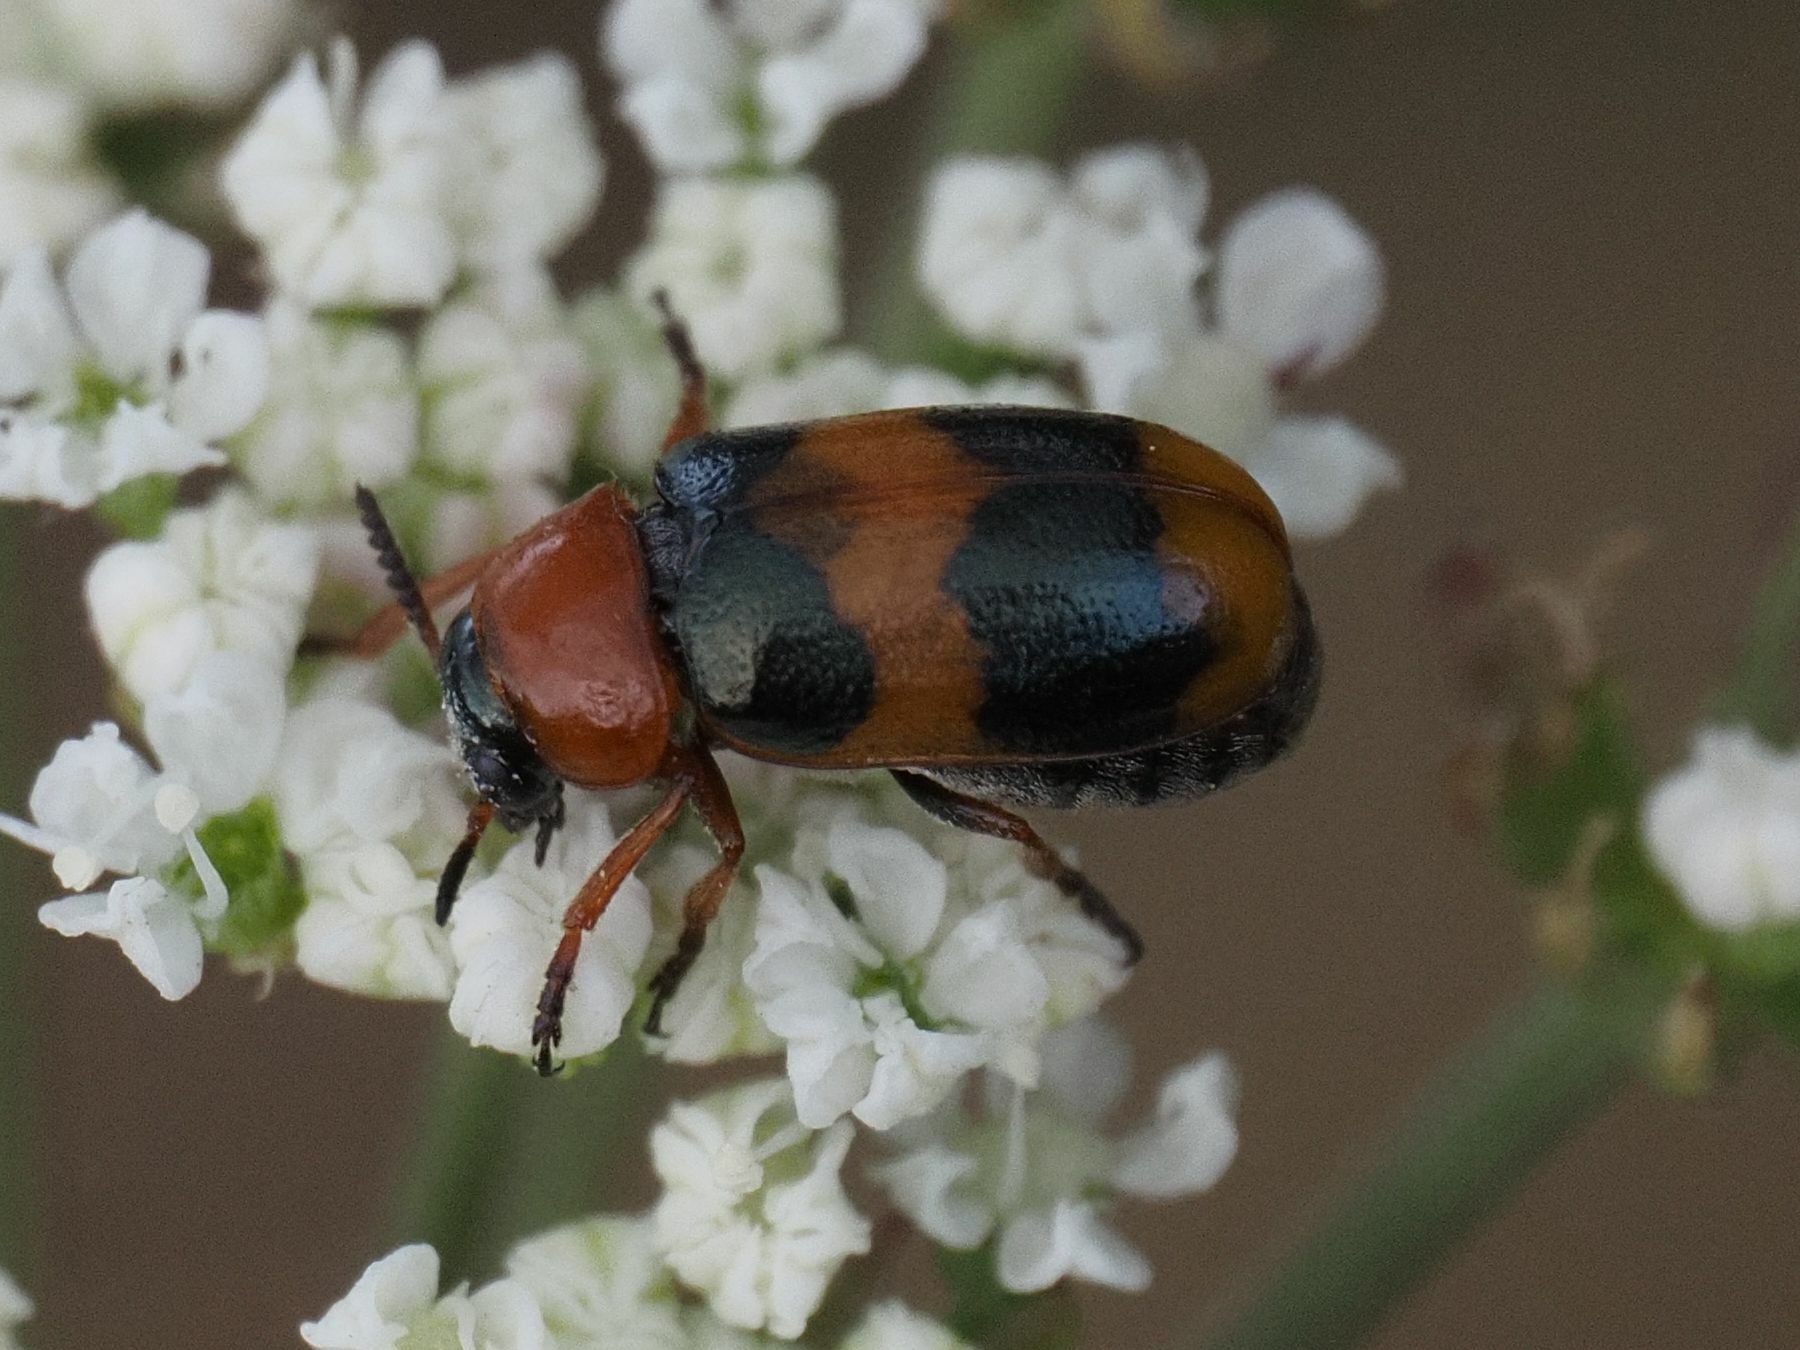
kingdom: Animalia
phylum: Arthropoda
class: Insecta
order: Coleoptera
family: Chrysomelidae
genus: Coptocephala
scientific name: Coptocephala unifasciata
